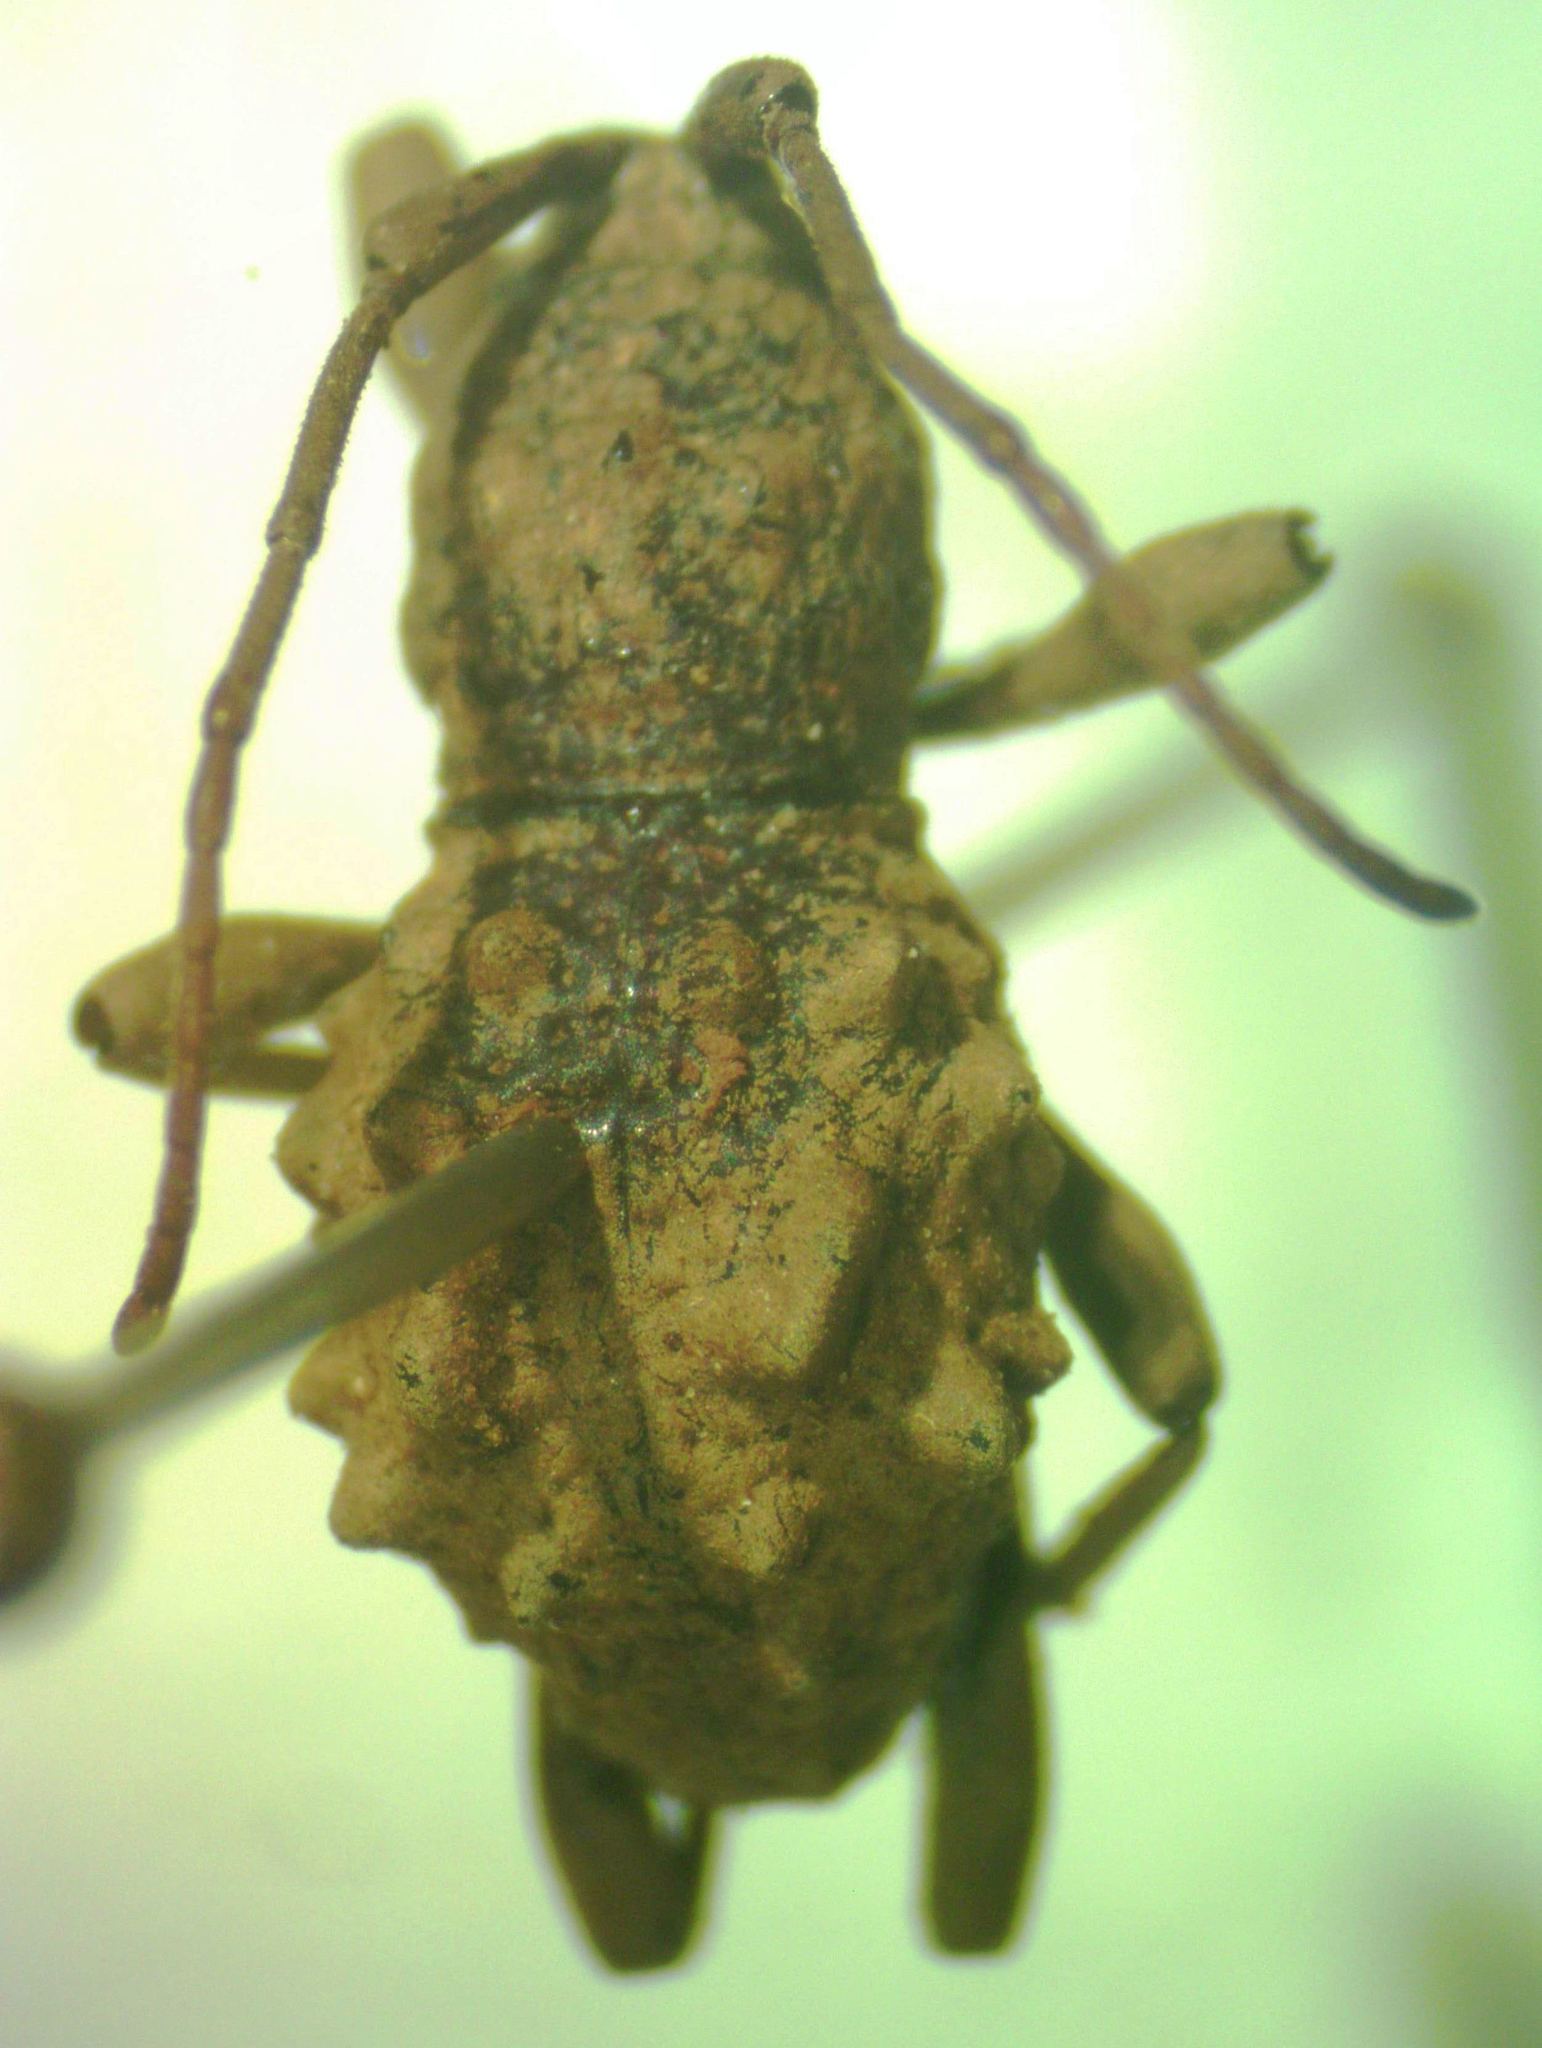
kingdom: Animalia
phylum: Arthropoda
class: Insecta
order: Coleoptera
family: Cerambycidae
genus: Phrynidius
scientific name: Phrynidius asper
